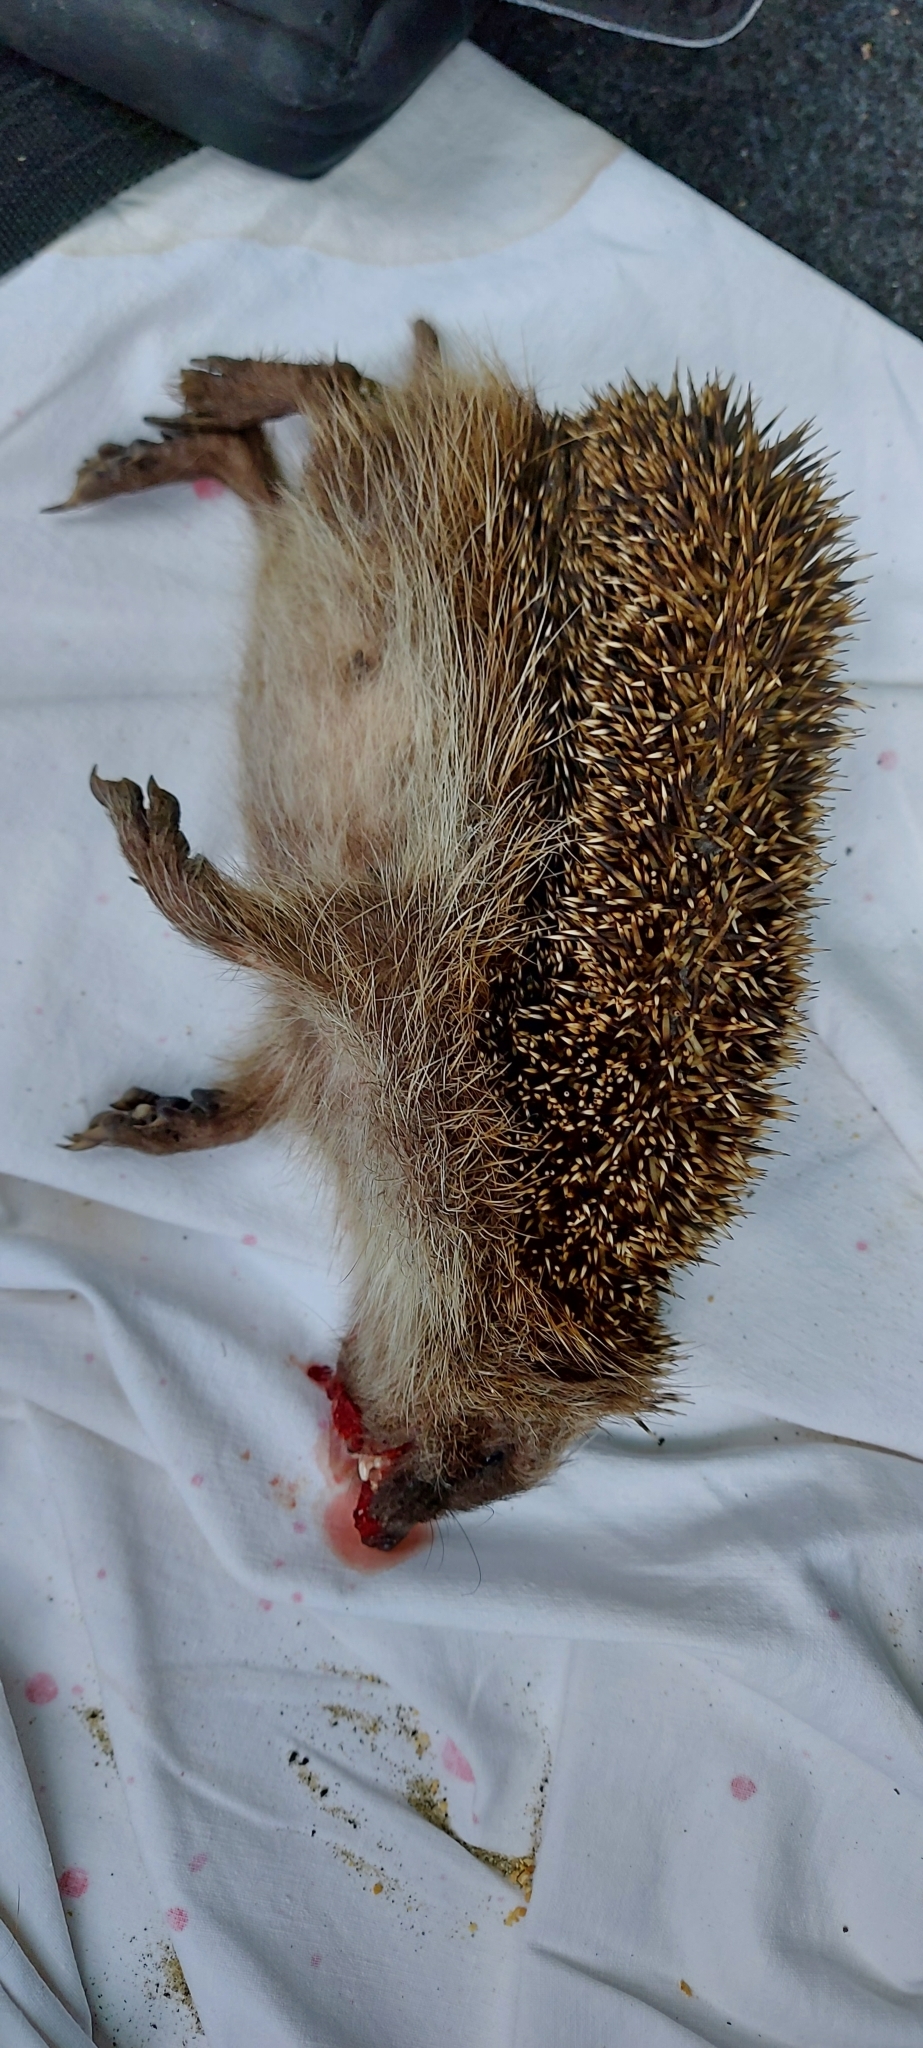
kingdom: Animalia
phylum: Chordata
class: Mammalia
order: Erinaceomorpha
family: Erinaceidae
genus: Erinaceus
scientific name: Erinaceus europaeus
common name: West european hedgehog
